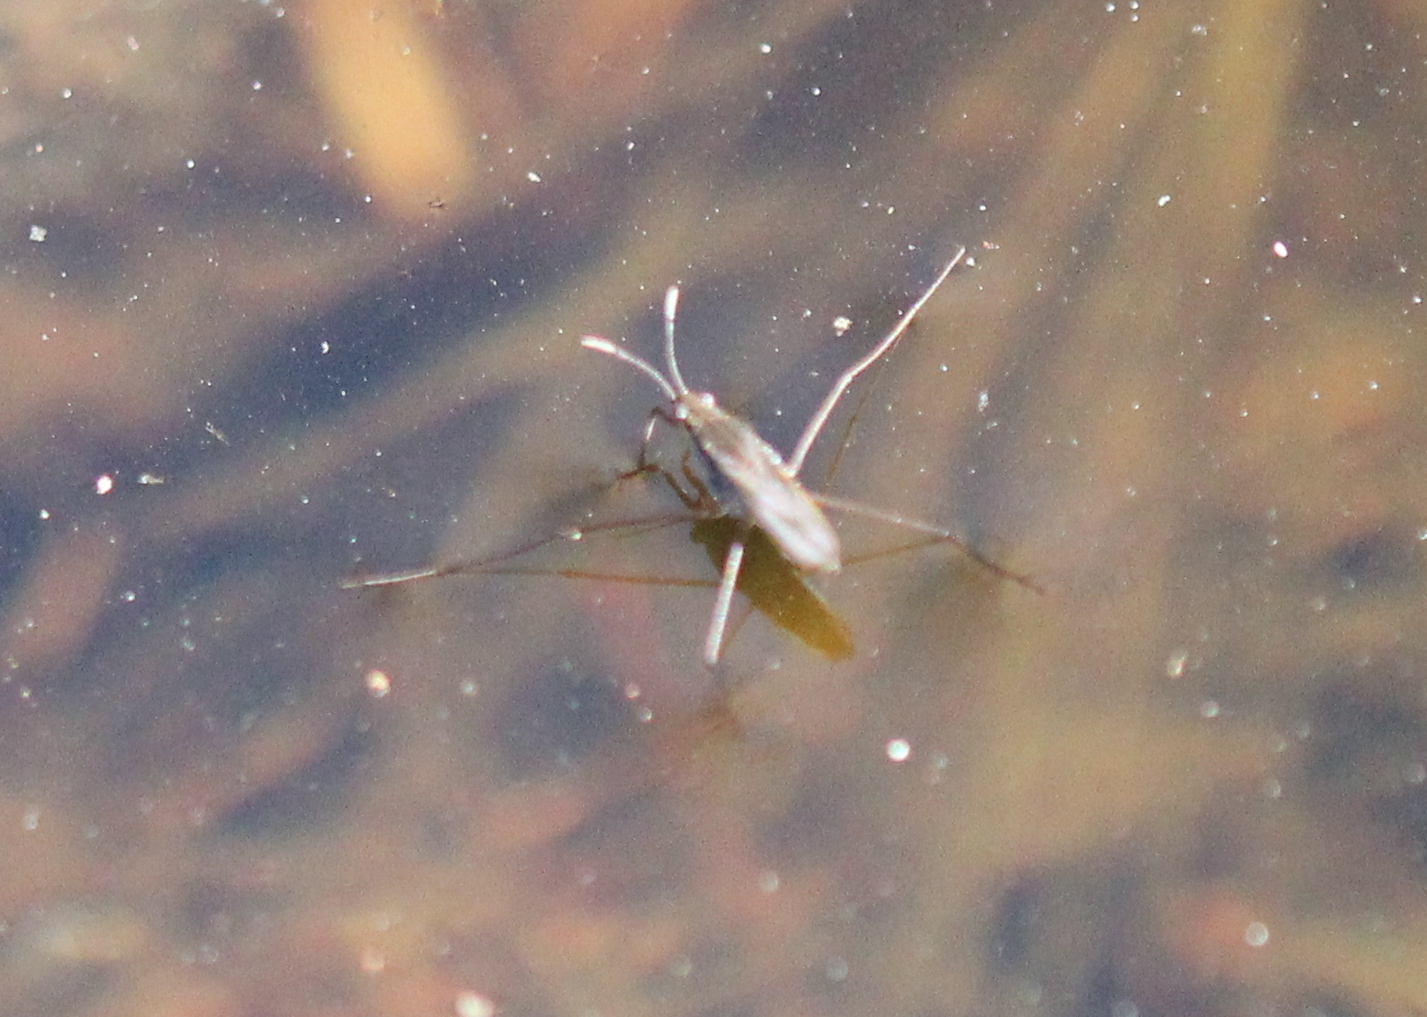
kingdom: Animalia
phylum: Arthropoda
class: Insecta
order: Hemiptera
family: Gerridae
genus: Gerris
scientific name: Gerris
